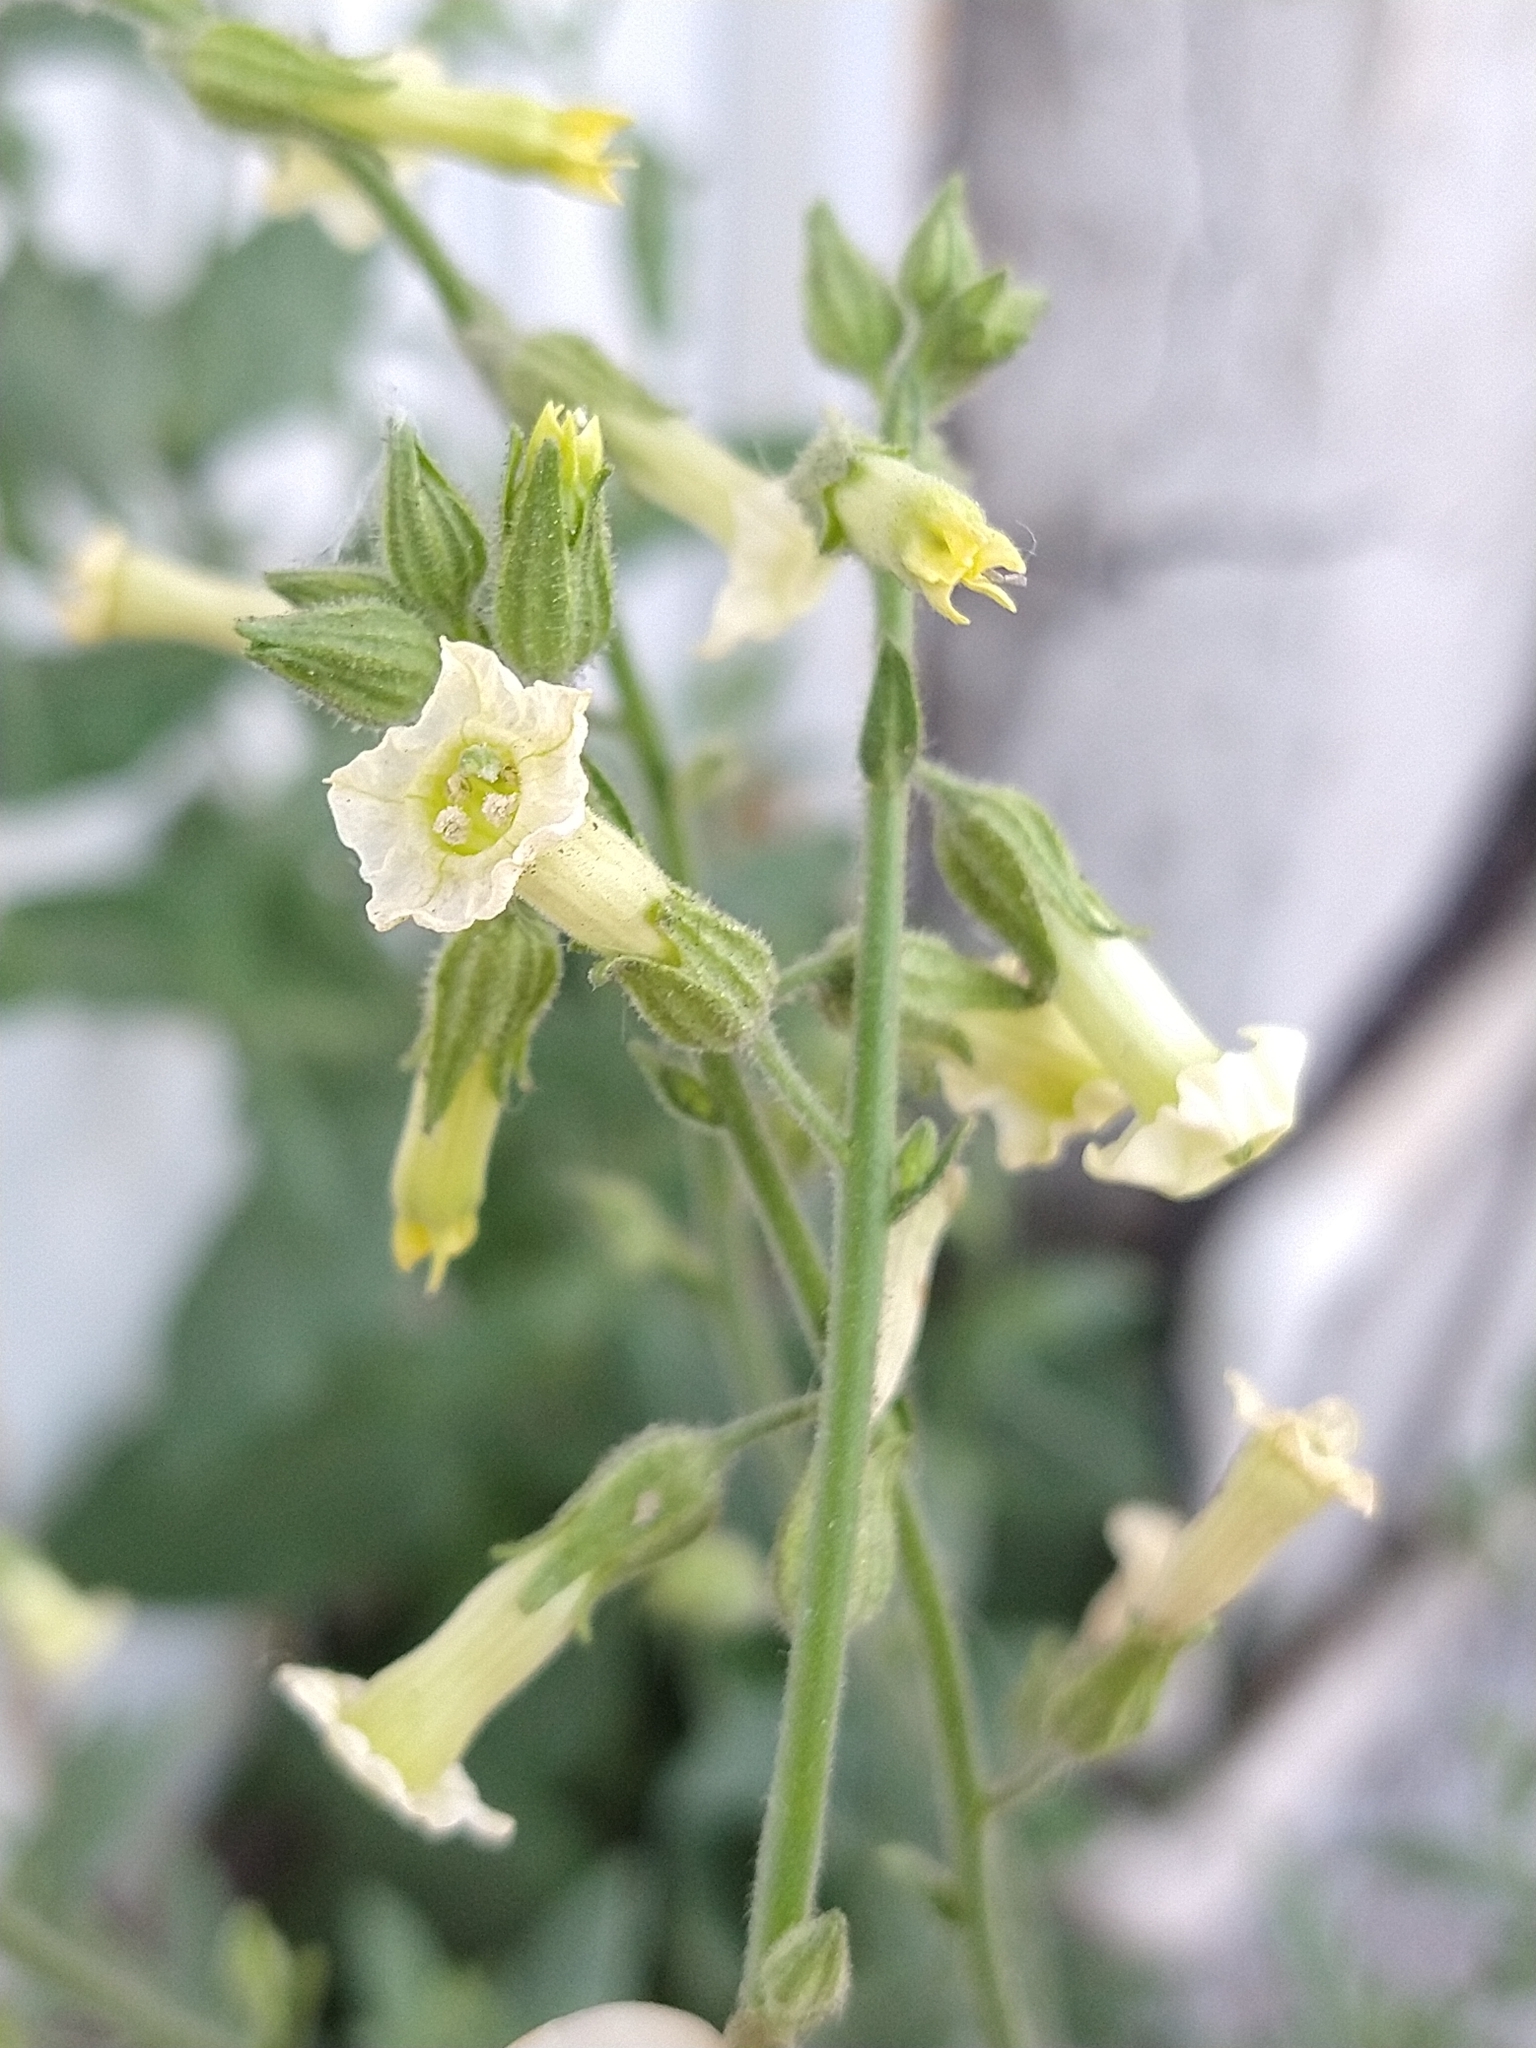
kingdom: Plantae
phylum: Tracheophyta
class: Magnoliopsida
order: Solanales
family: Solanaceae
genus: Nicotiana
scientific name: Nicotiana obtusifolia
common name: Desert tobacco
